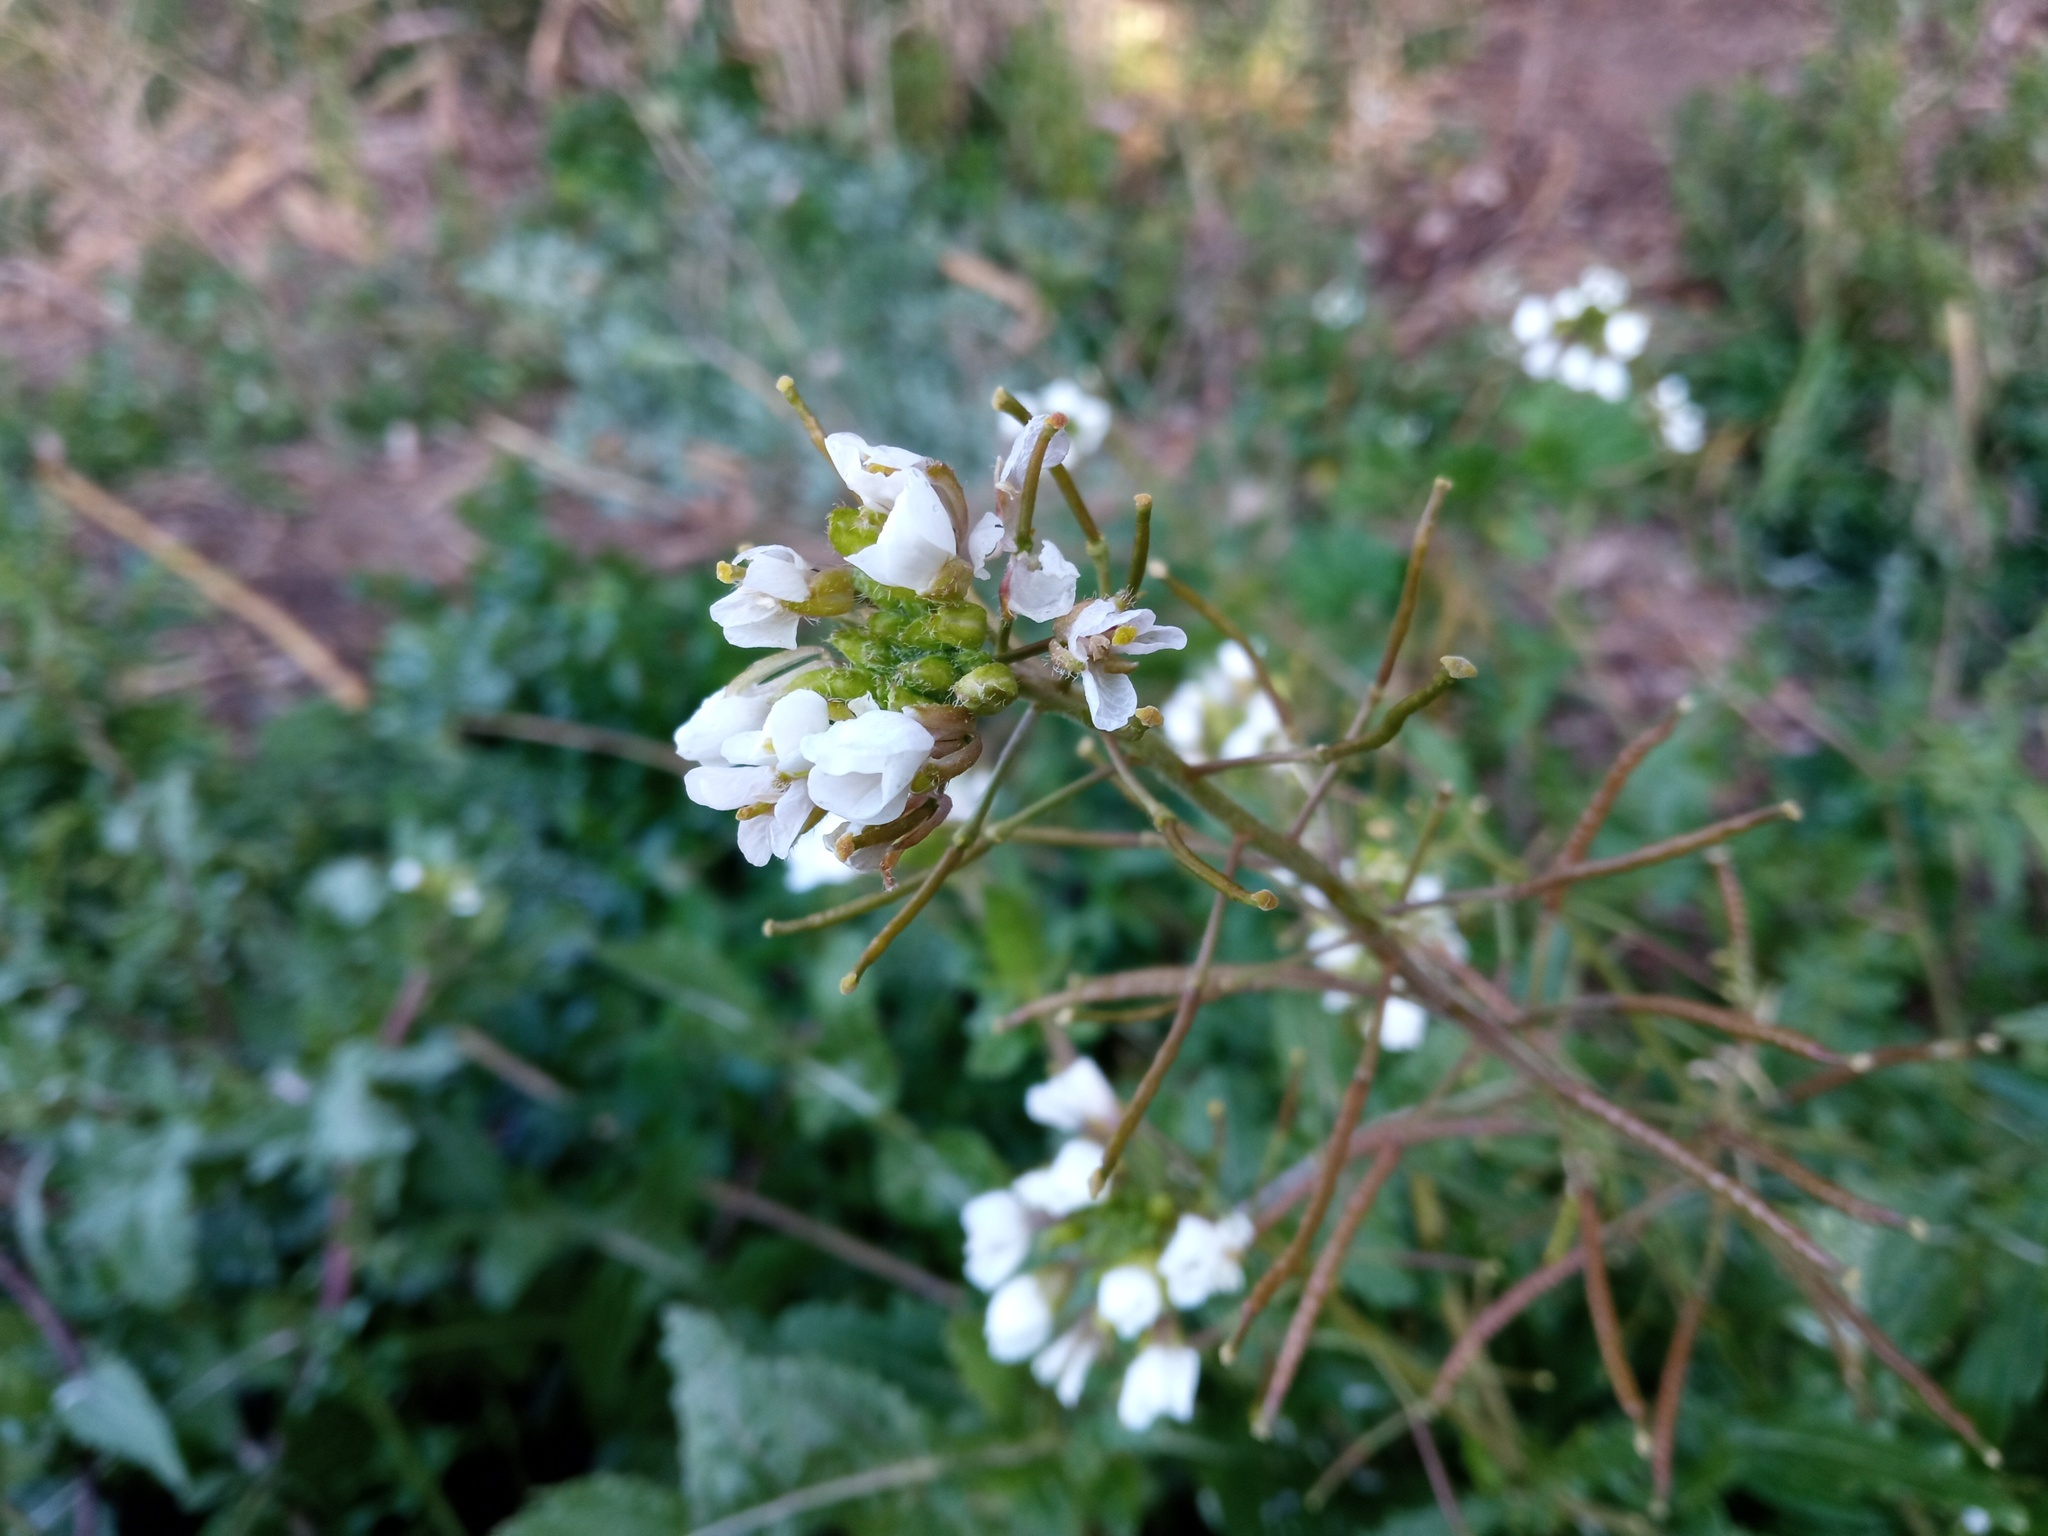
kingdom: Plantae
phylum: Tracheophyta
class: Magnoliopsida
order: Brassicales
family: Brassicaceae
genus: Diplotaxis
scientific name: Diplotaxis erucoides
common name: White rocket
